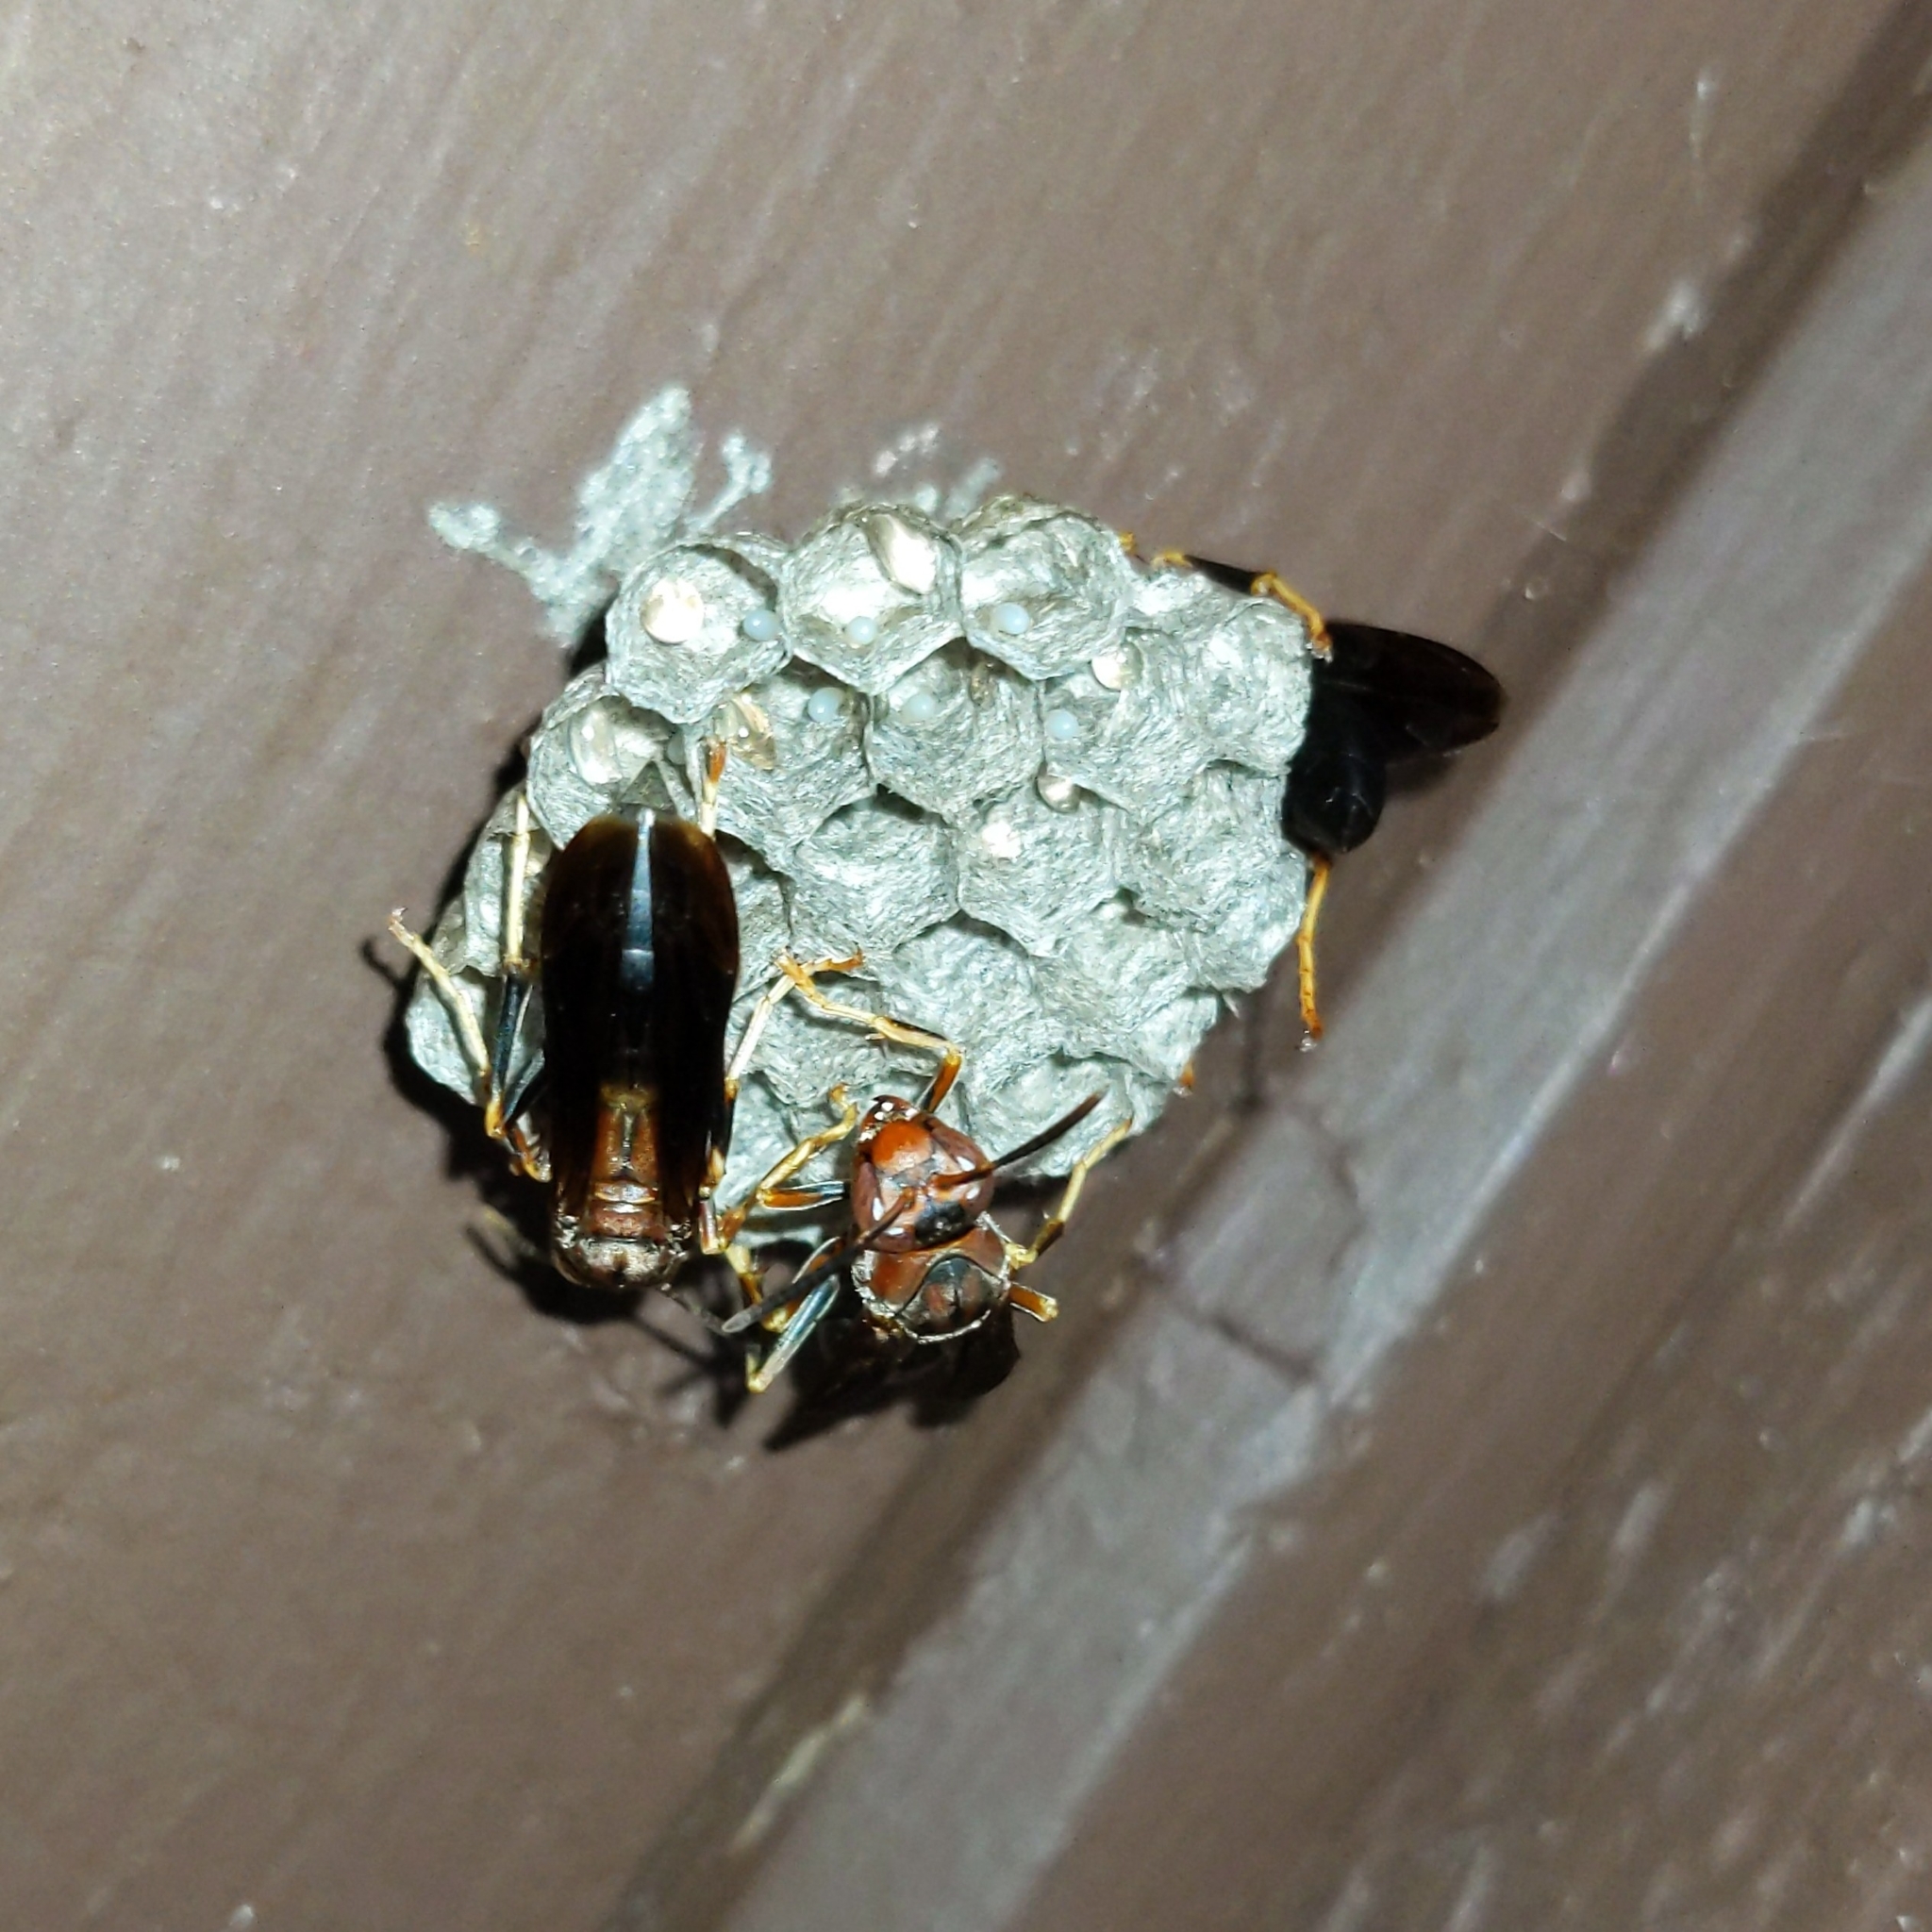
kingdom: Animalia
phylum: Arthropoda
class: Insecta
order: Hymenoptera
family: Eumenidae
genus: Polistes
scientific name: Polistes metricus
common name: Metric paper wasp
